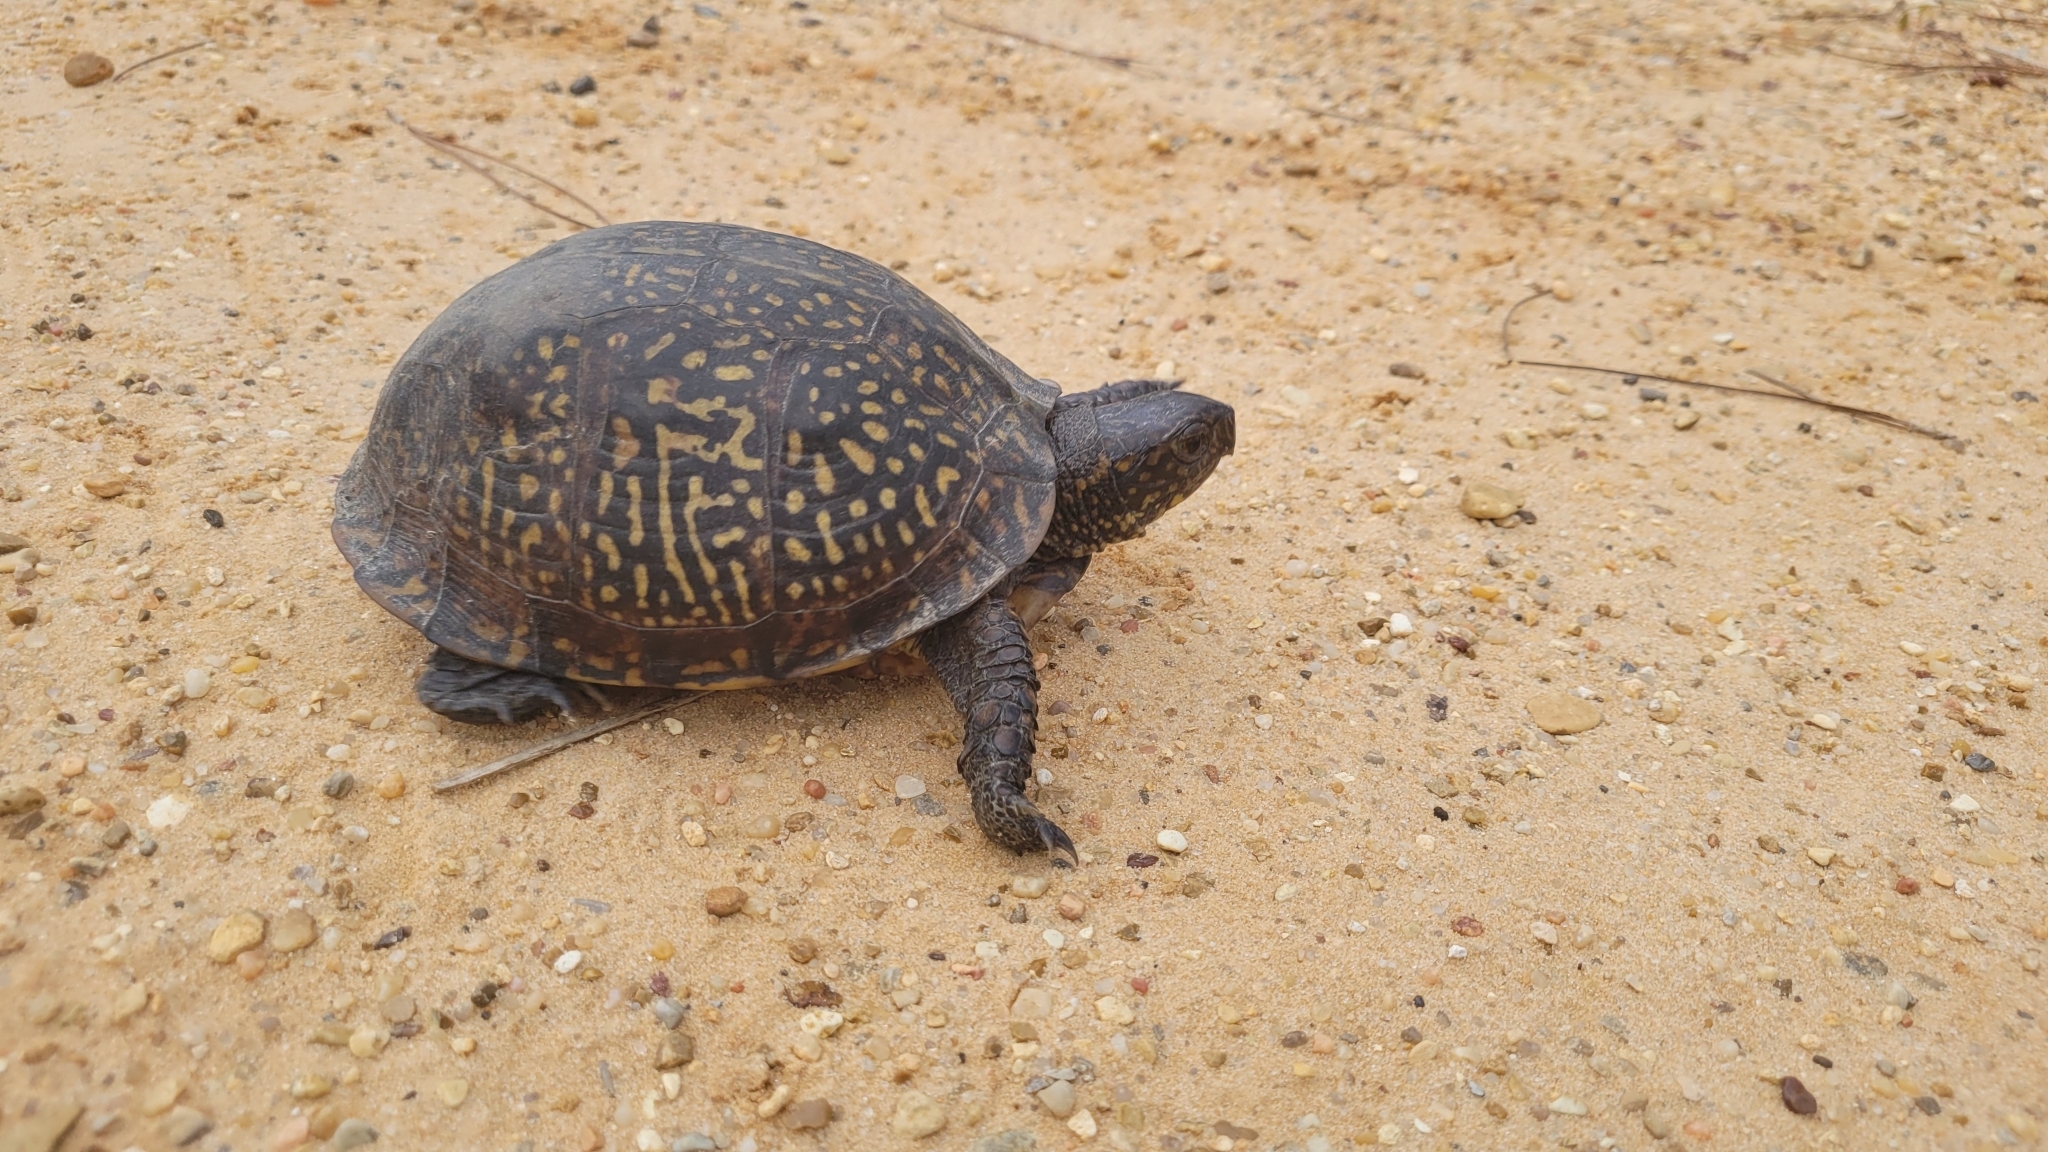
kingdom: Animalia
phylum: Chordata
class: Testudines
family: Emydidae
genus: Terrapene
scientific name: Terrapene carolina
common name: Common box turtle
